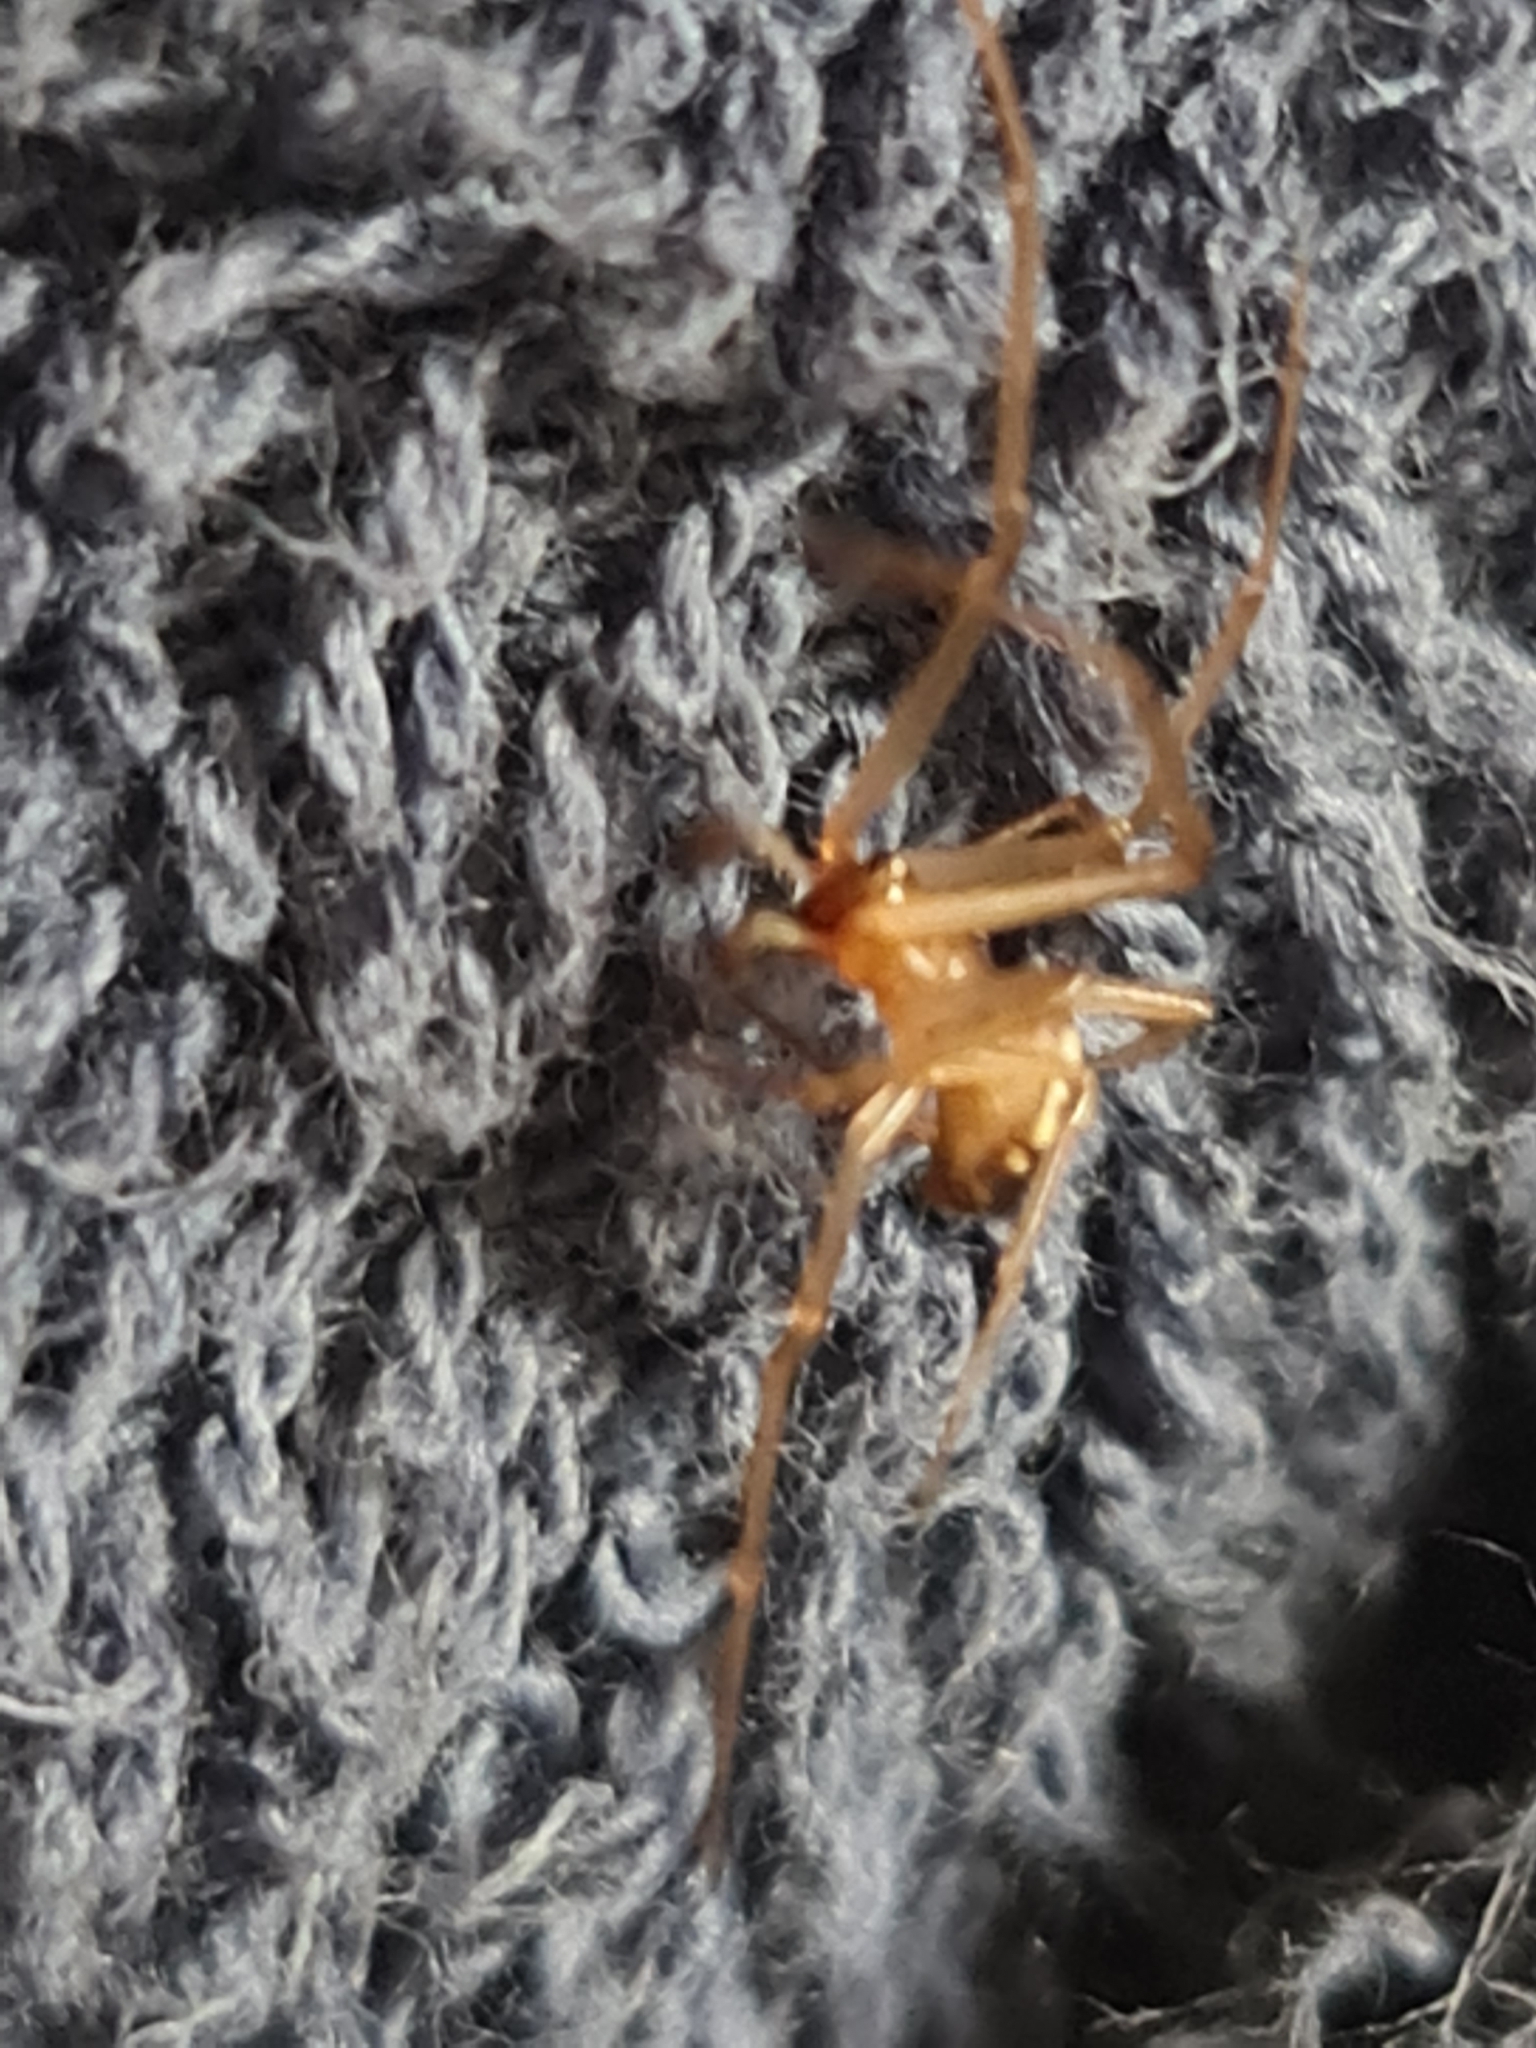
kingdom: Animalia
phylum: Arthropoda
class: Arachnida
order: Araneae
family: Theridiidae
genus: Steatoda
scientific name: Steatoda grossa
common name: False black widow
